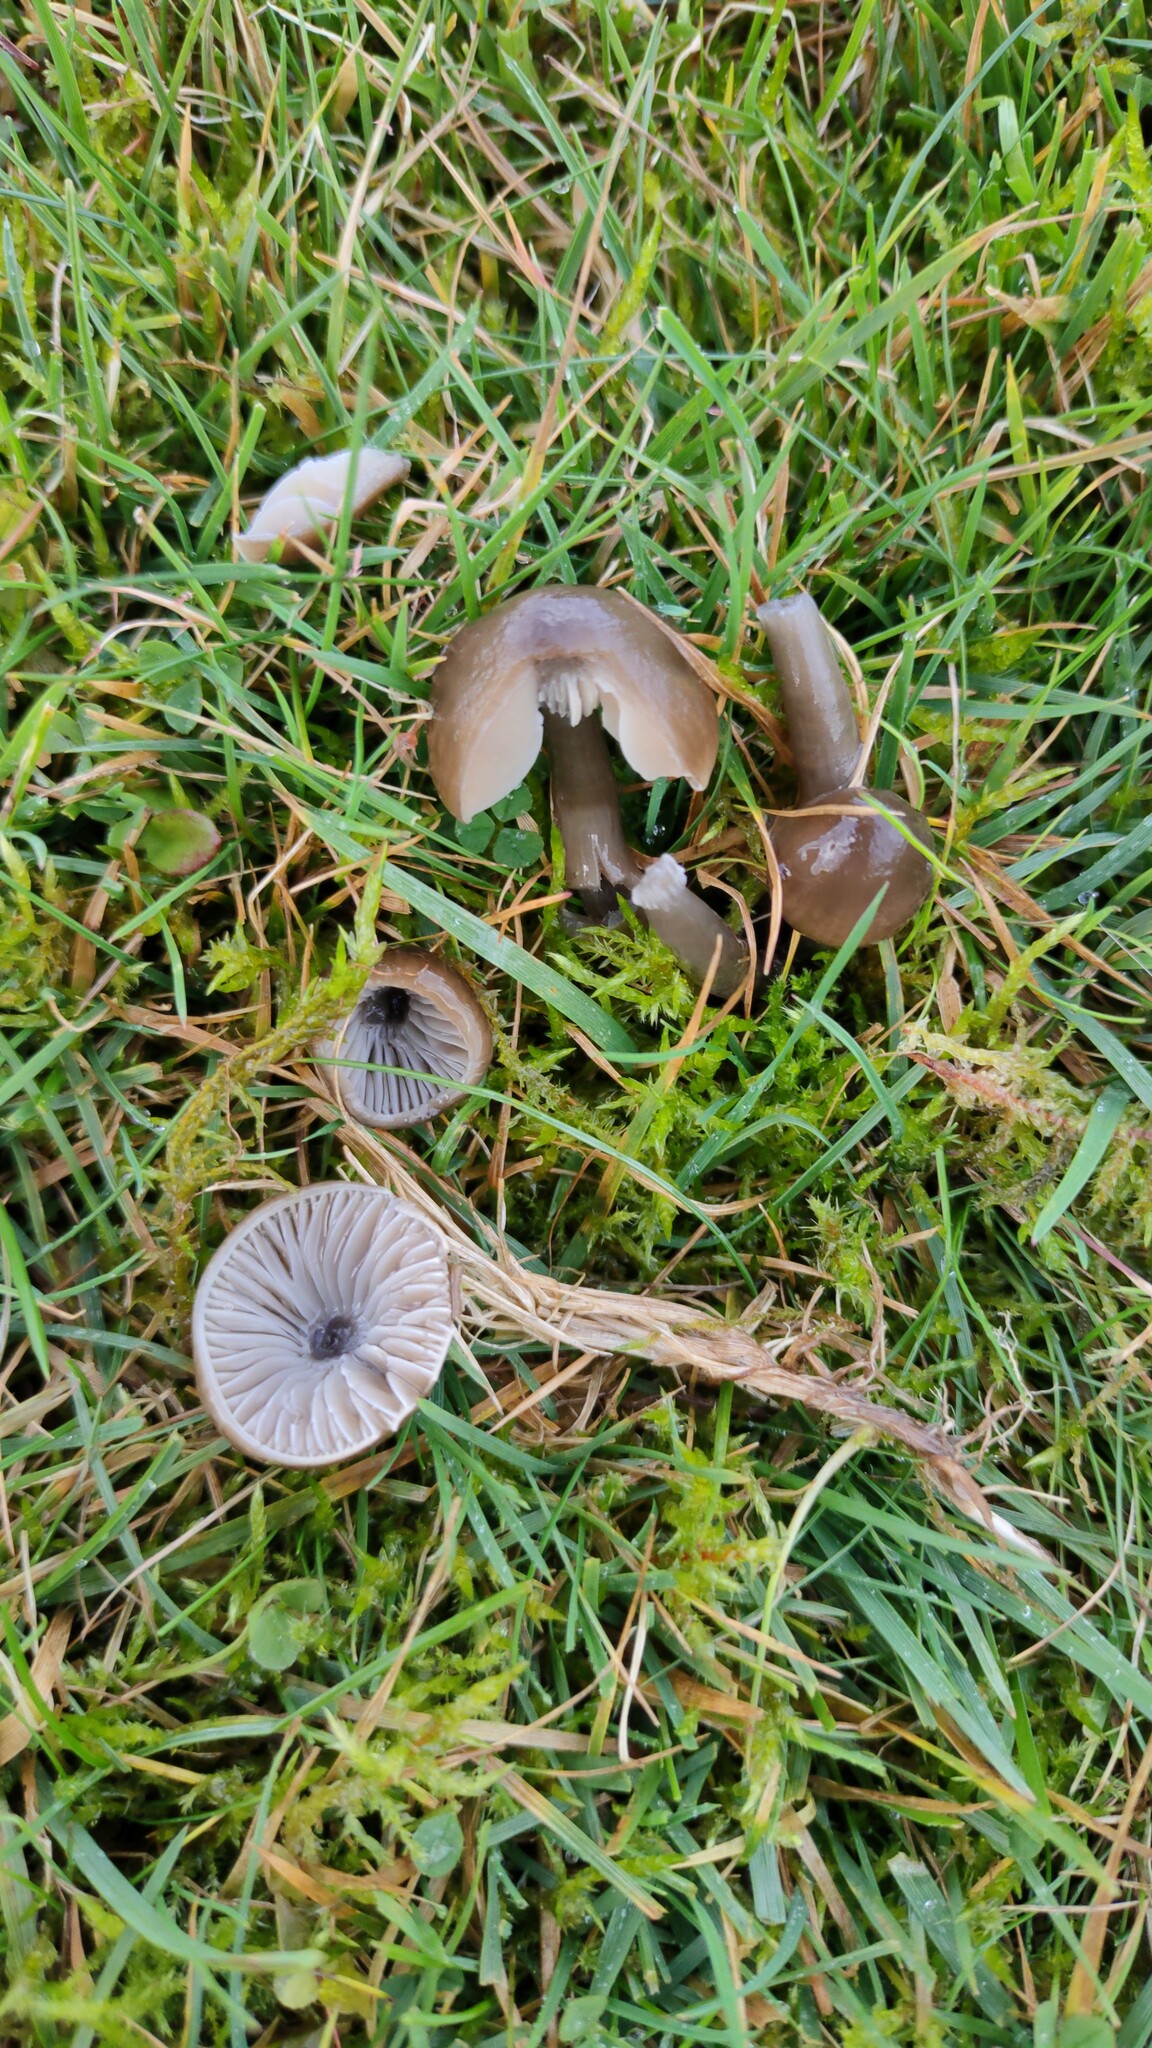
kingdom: Fungi
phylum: Basidiomycota
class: Agaricomycetes
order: Agaricales
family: Hygrophoraceae
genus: Gliophorus
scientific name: Gliophorus irrigatus
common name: Slimy waxcap
